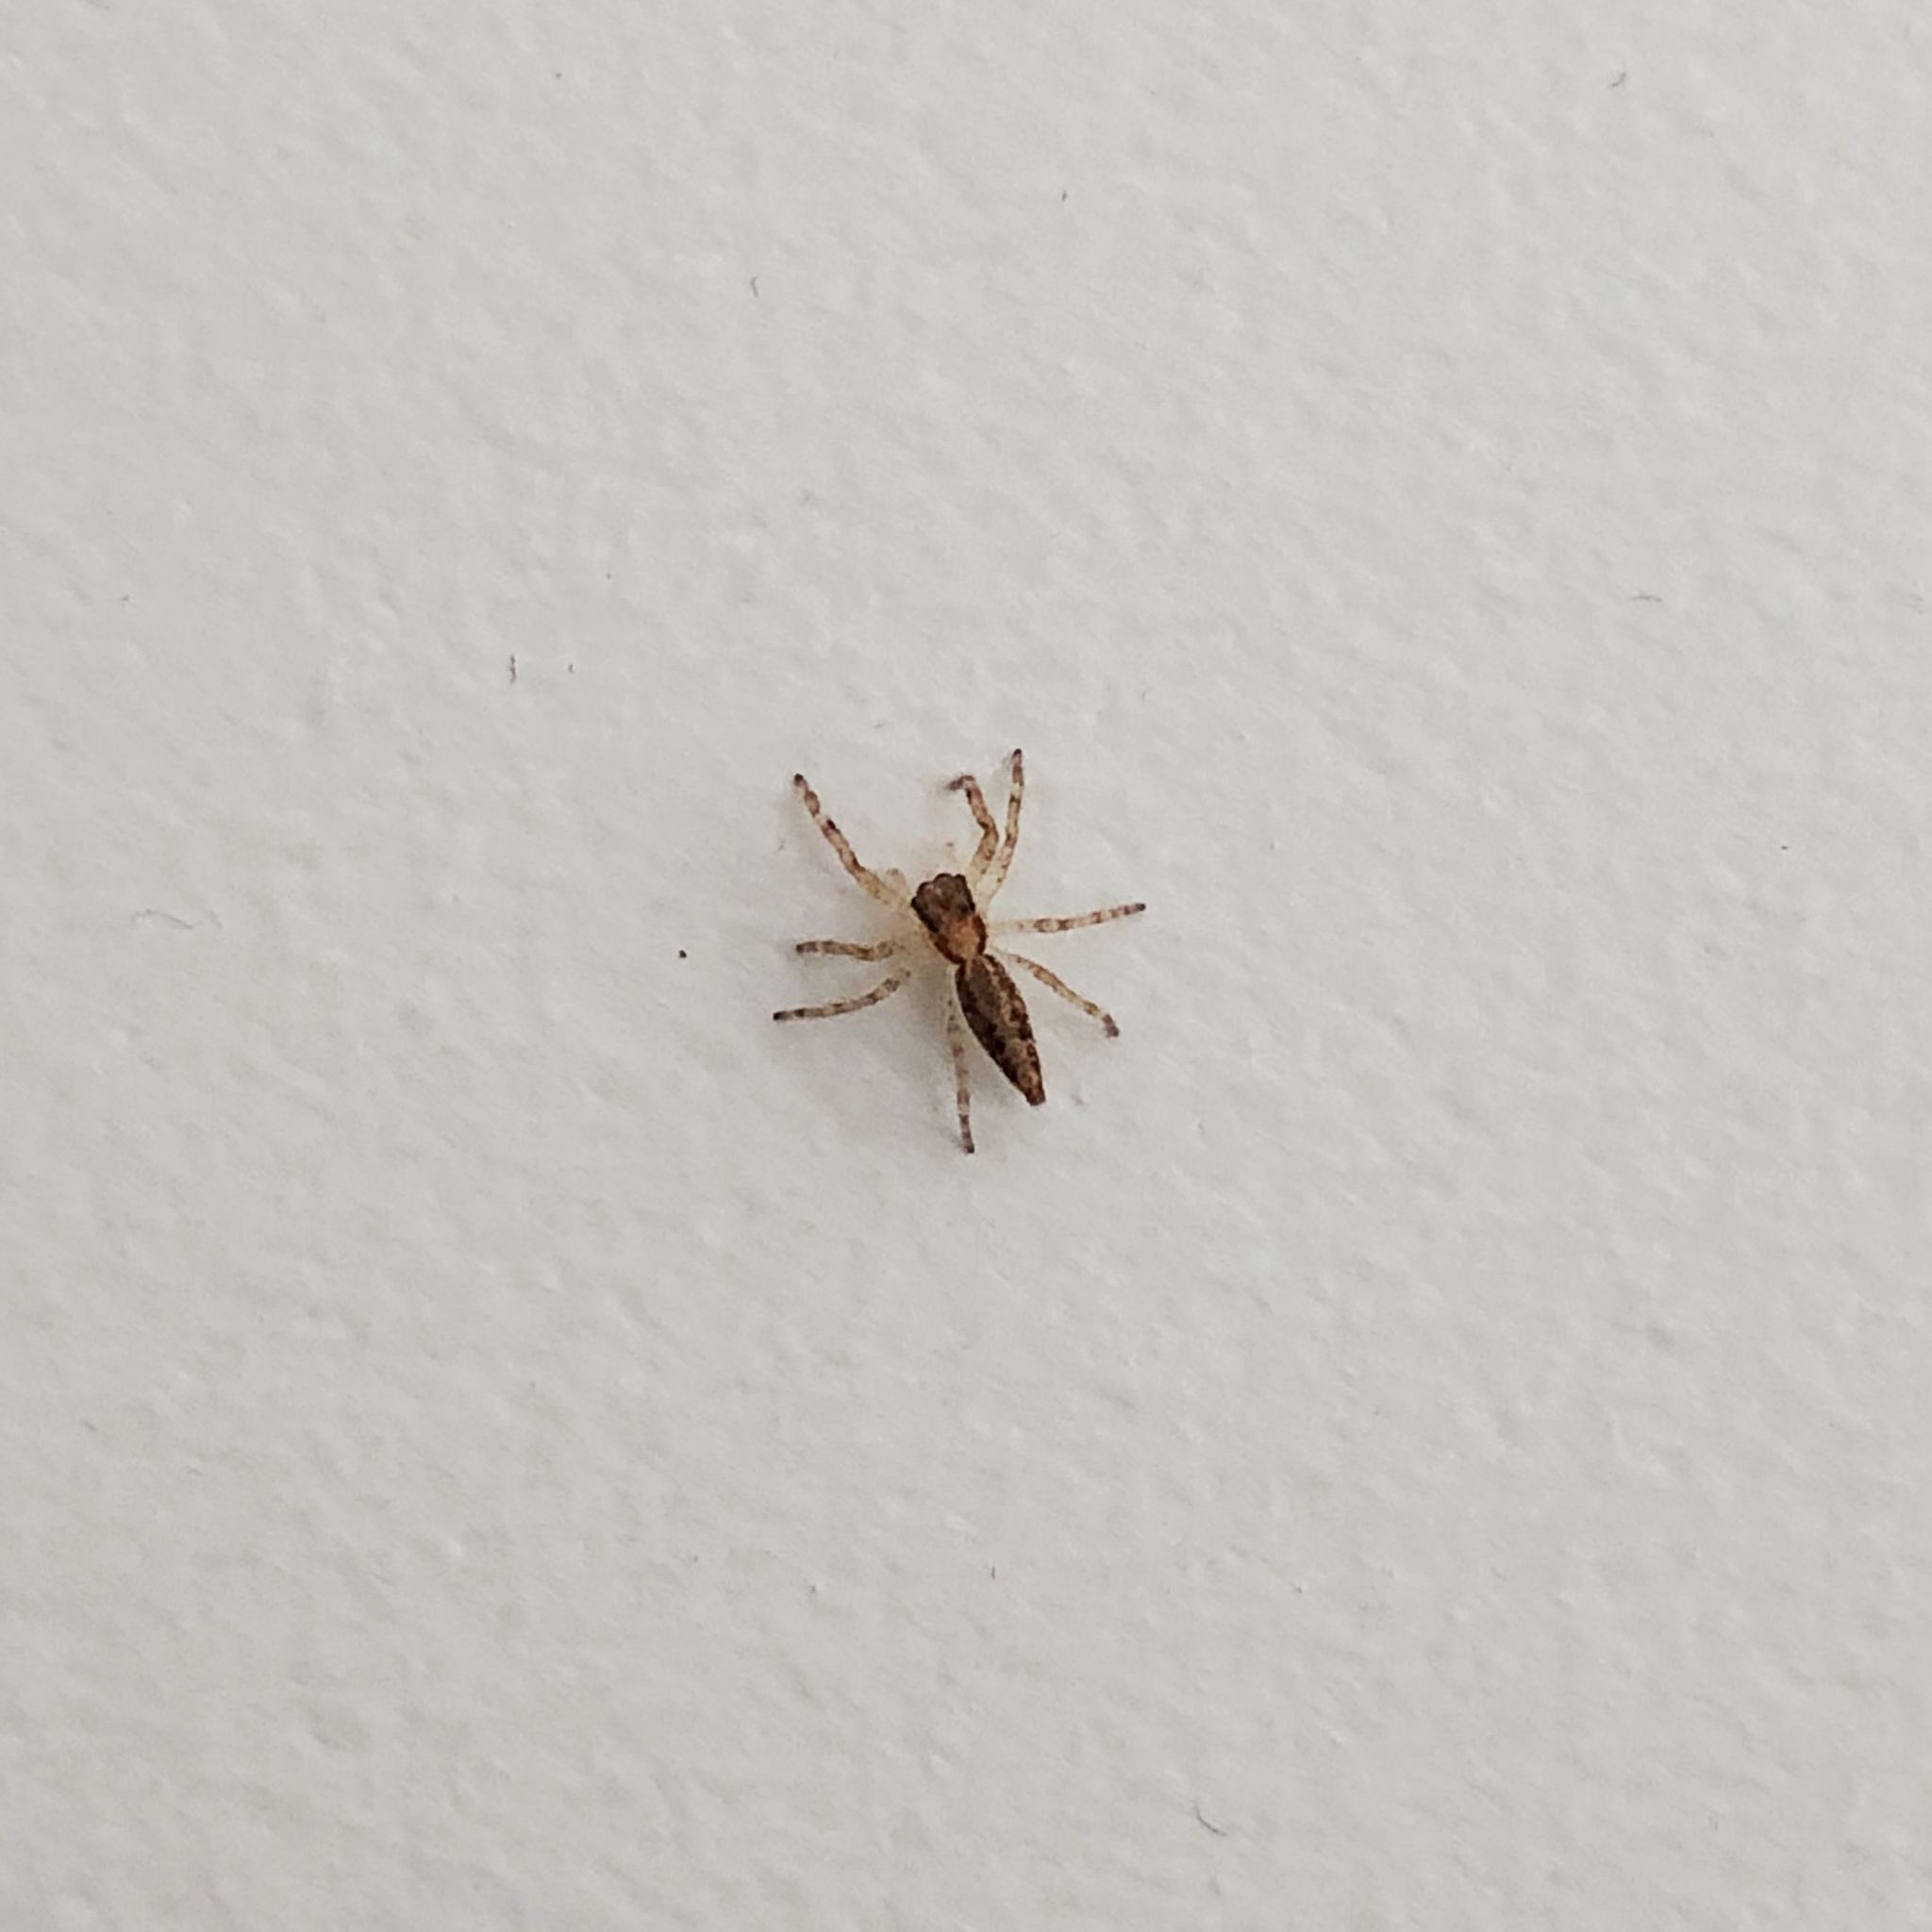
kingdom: Animalia
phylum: Arthropoda
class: Arachnida
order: Araneae
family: Salticidae
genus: Helpis
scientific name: Helpis minitabunda
